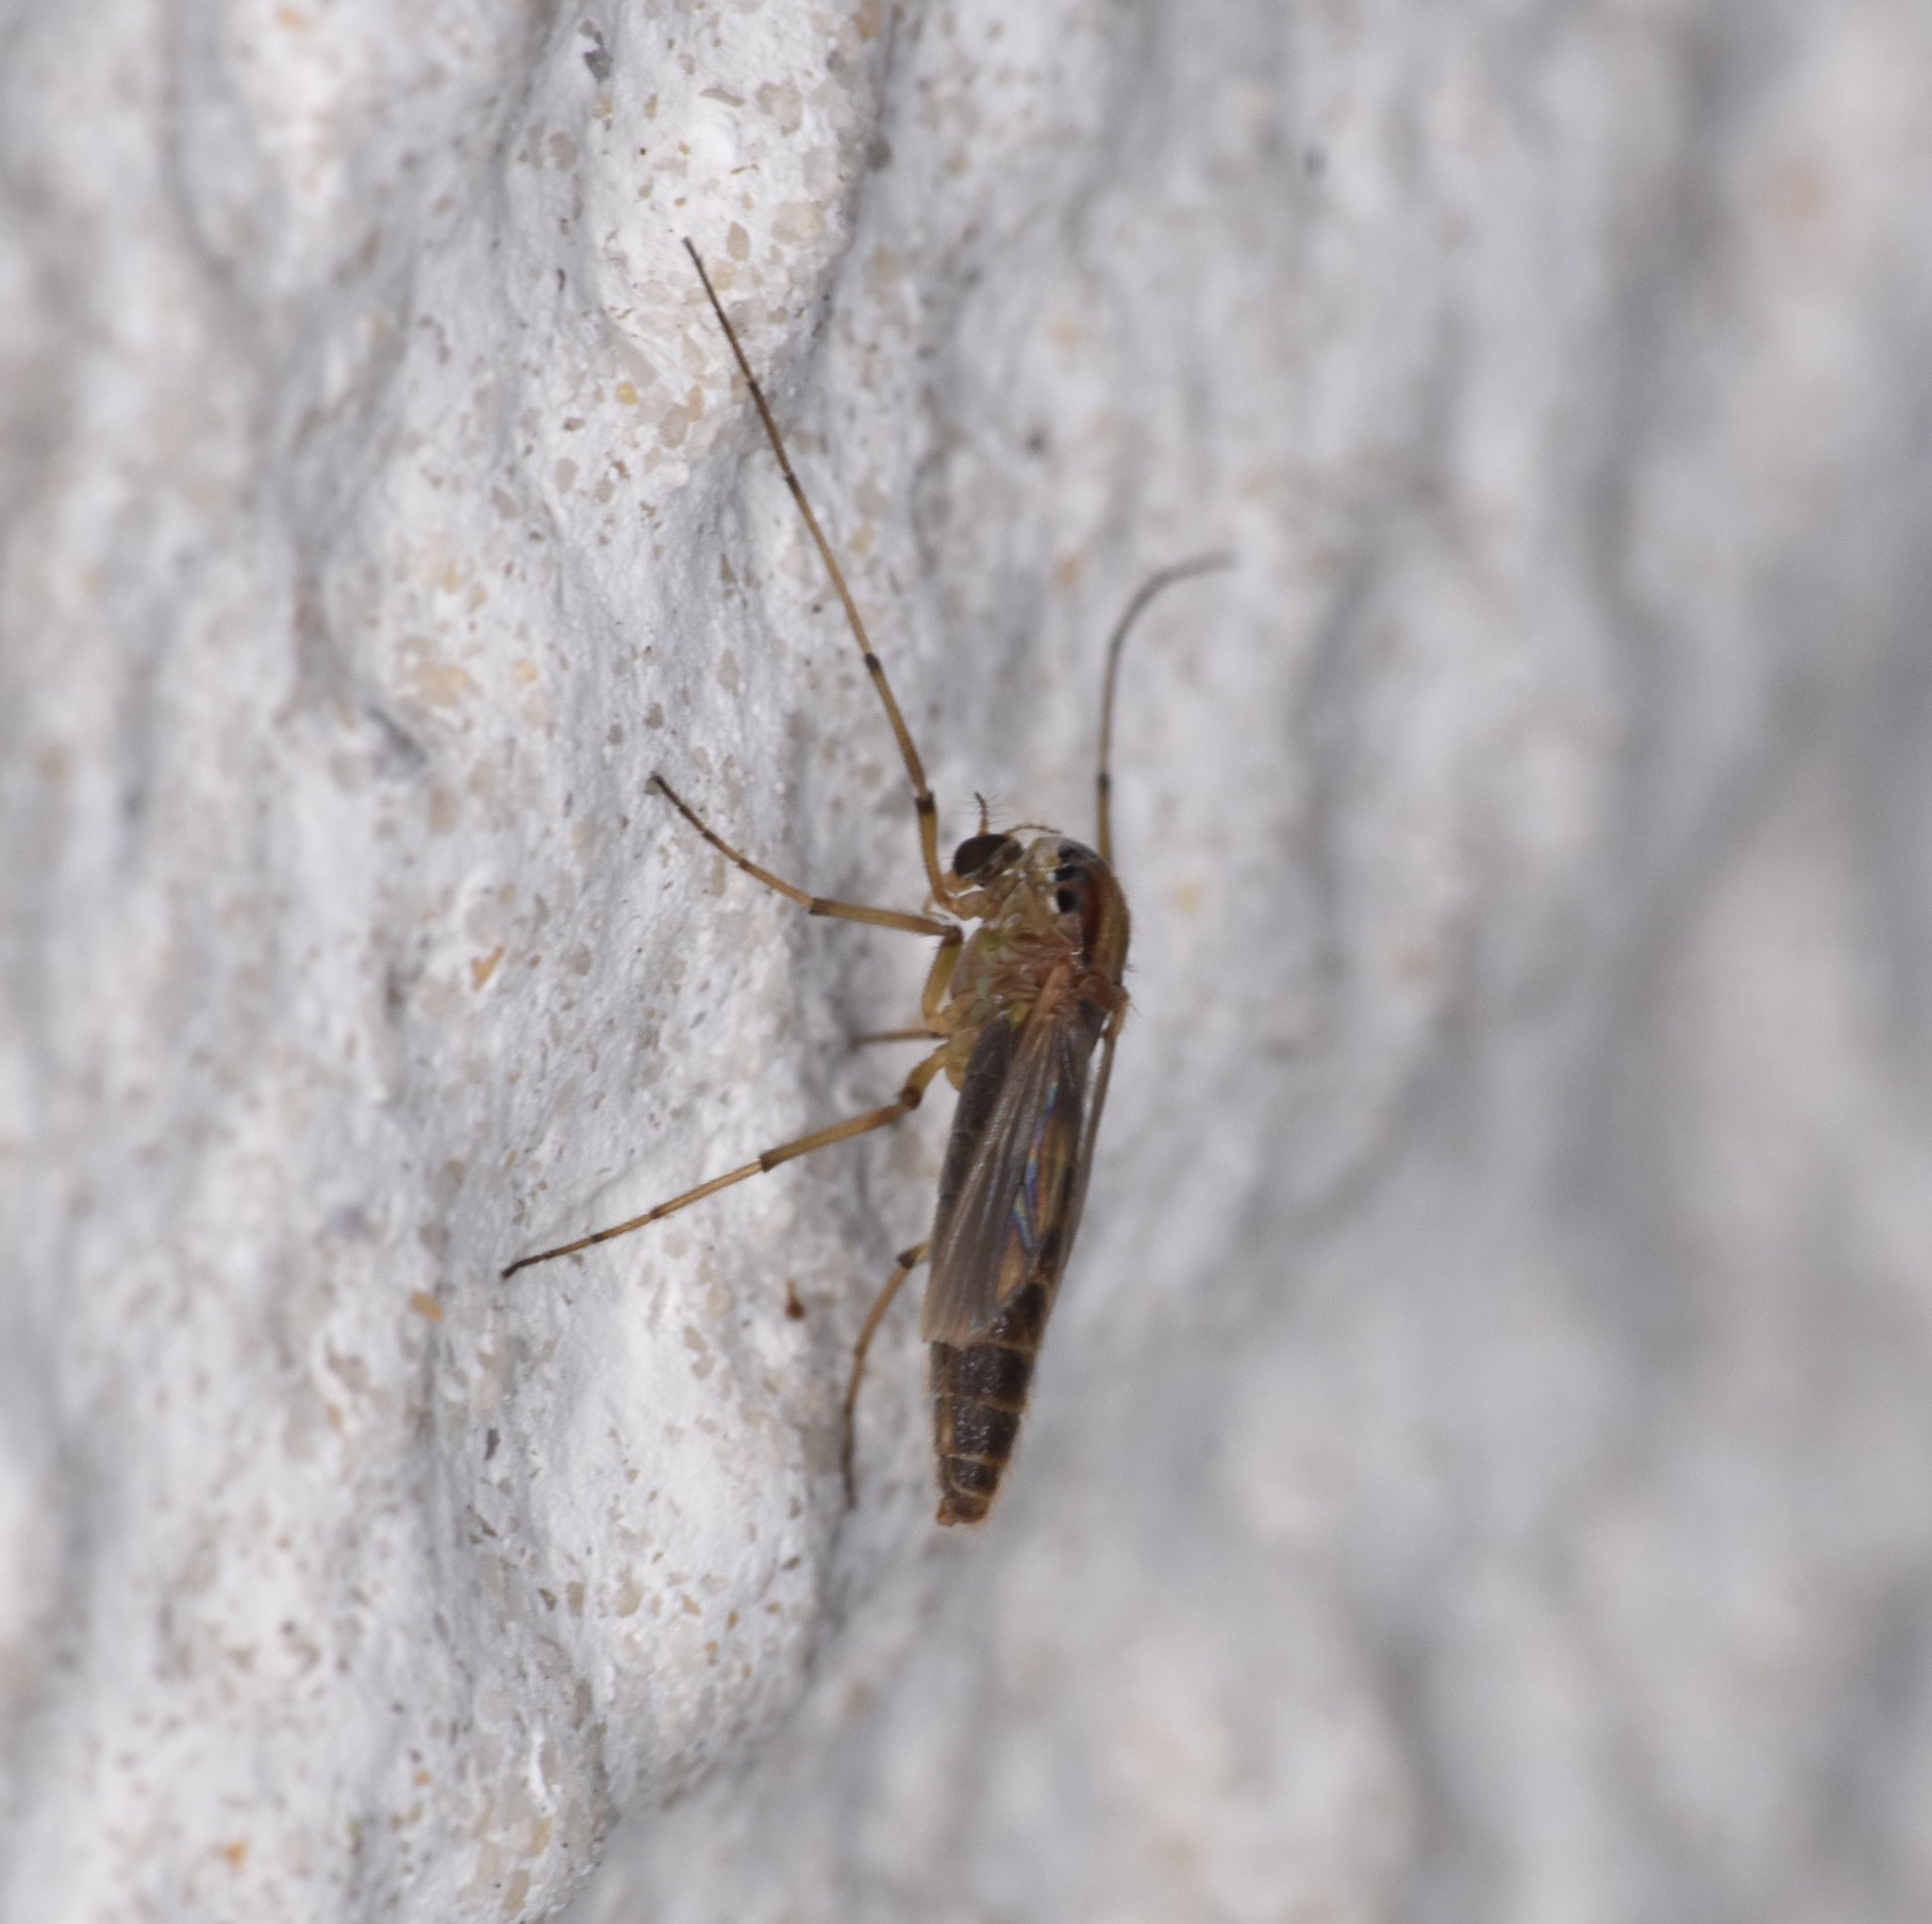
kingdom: Animalia
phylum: Arthropoda
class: Insecta
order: Diptera
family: Chironomidae
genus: Goeldichironomus
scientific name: Goeldichironomus carus
